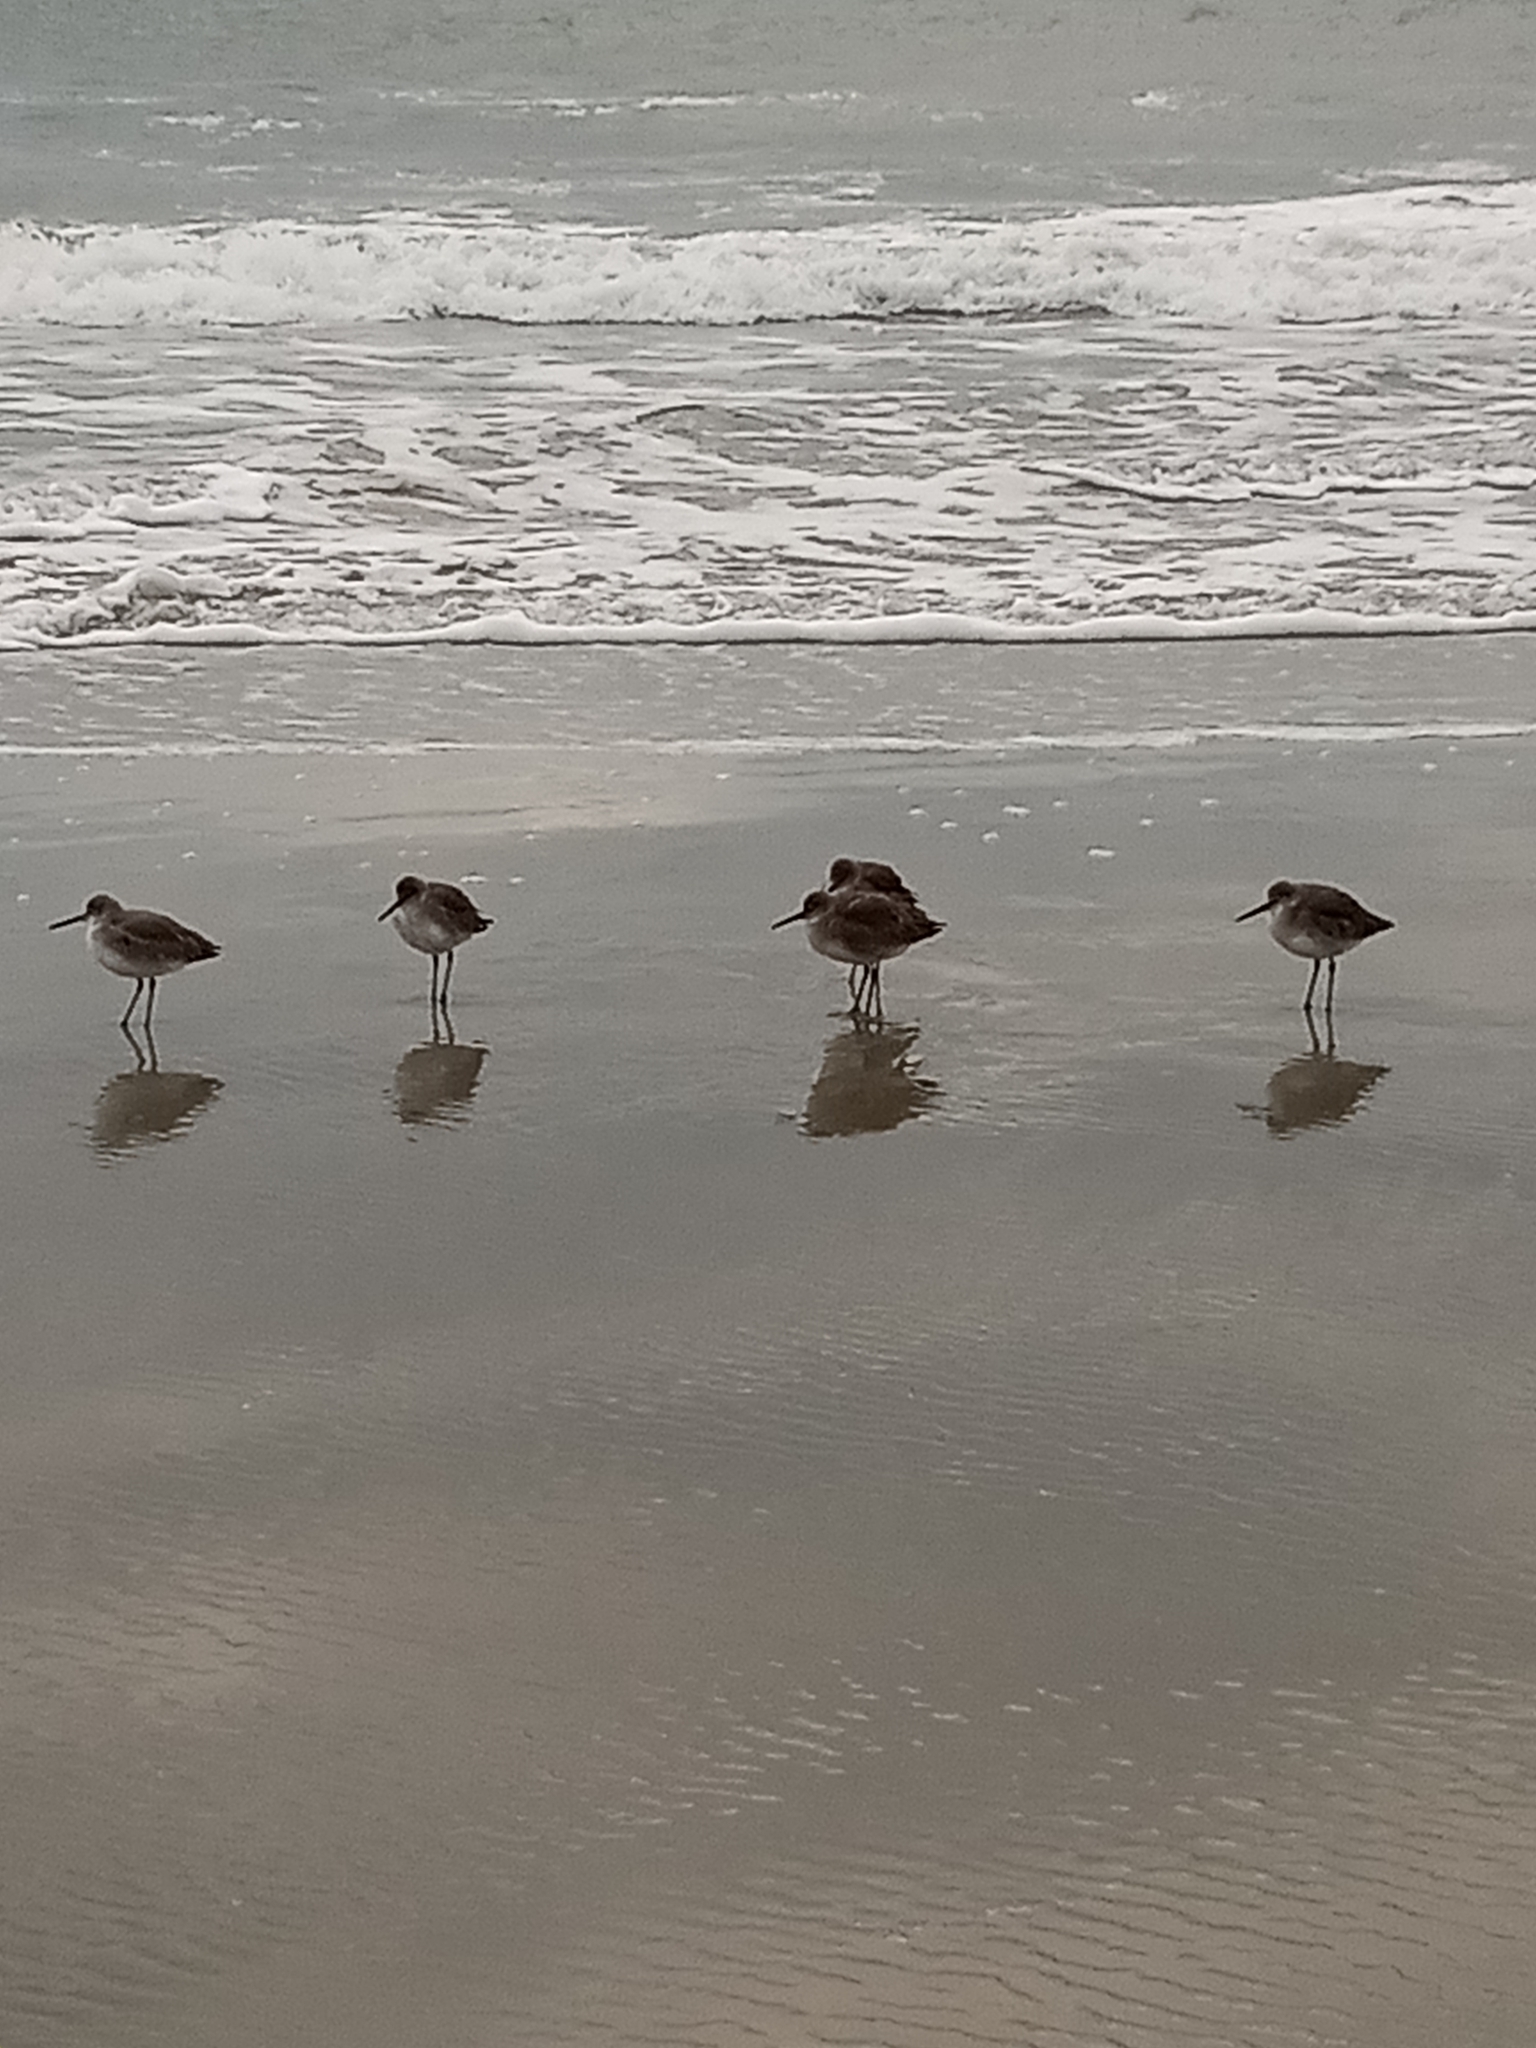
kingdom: Animalia
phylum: Chordata
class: Aves
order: Charadriiformes
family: Scolopacidae
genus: Tringa
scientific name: Tringa semipalmata
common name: Willet
